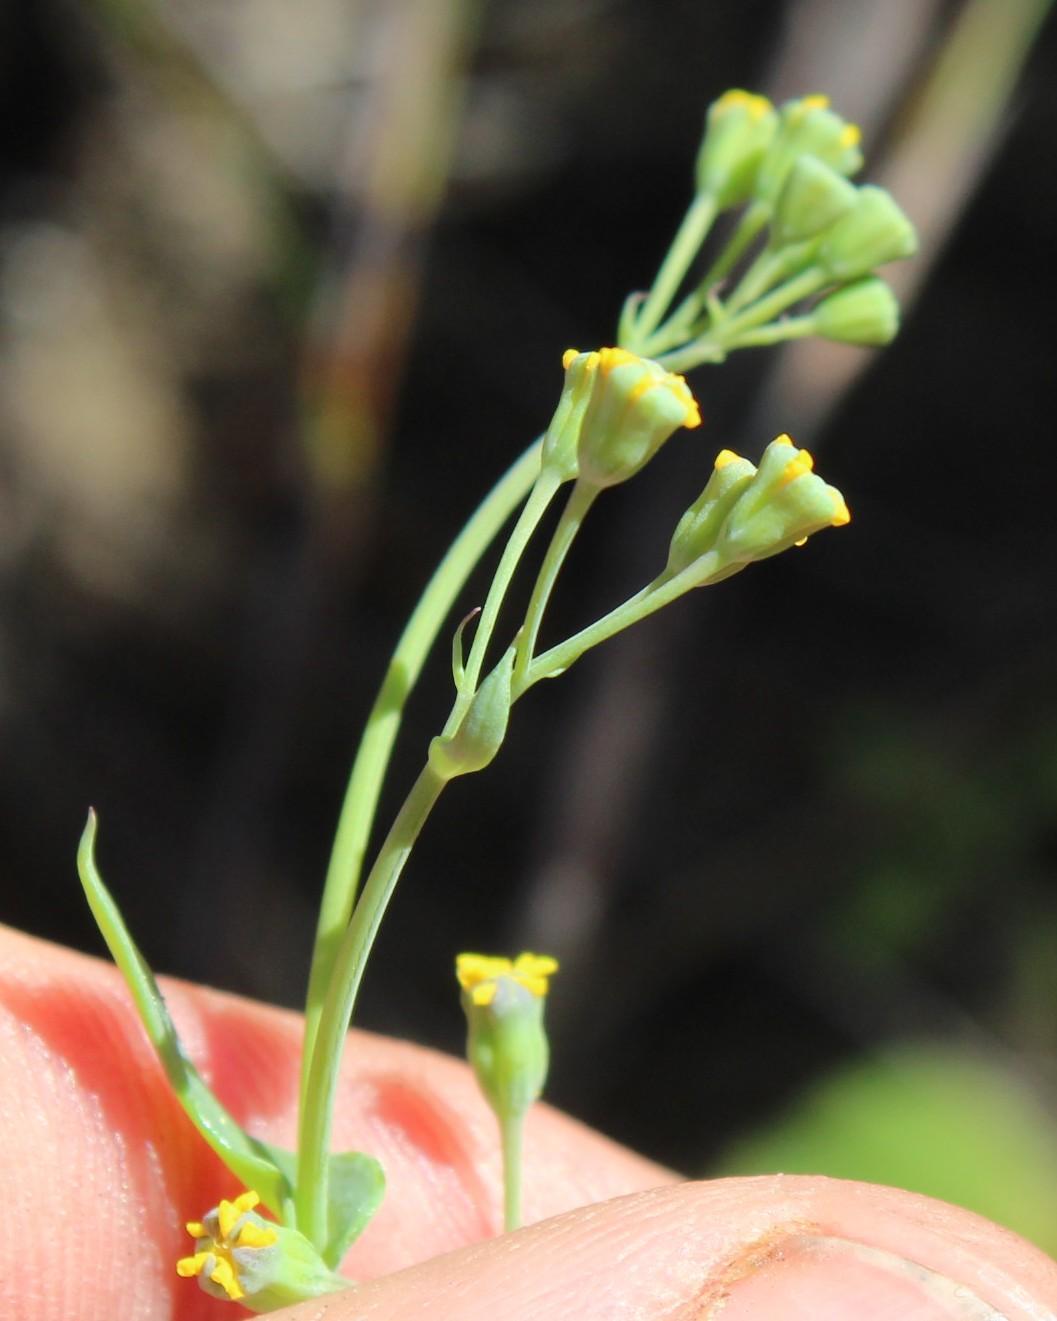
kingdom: Plantae
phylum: Tracheophyta
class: Magnoliopsida
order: Asterales
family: Asteraceae
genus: Gymnodiscus
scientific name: Gymnodiscus capillaris
